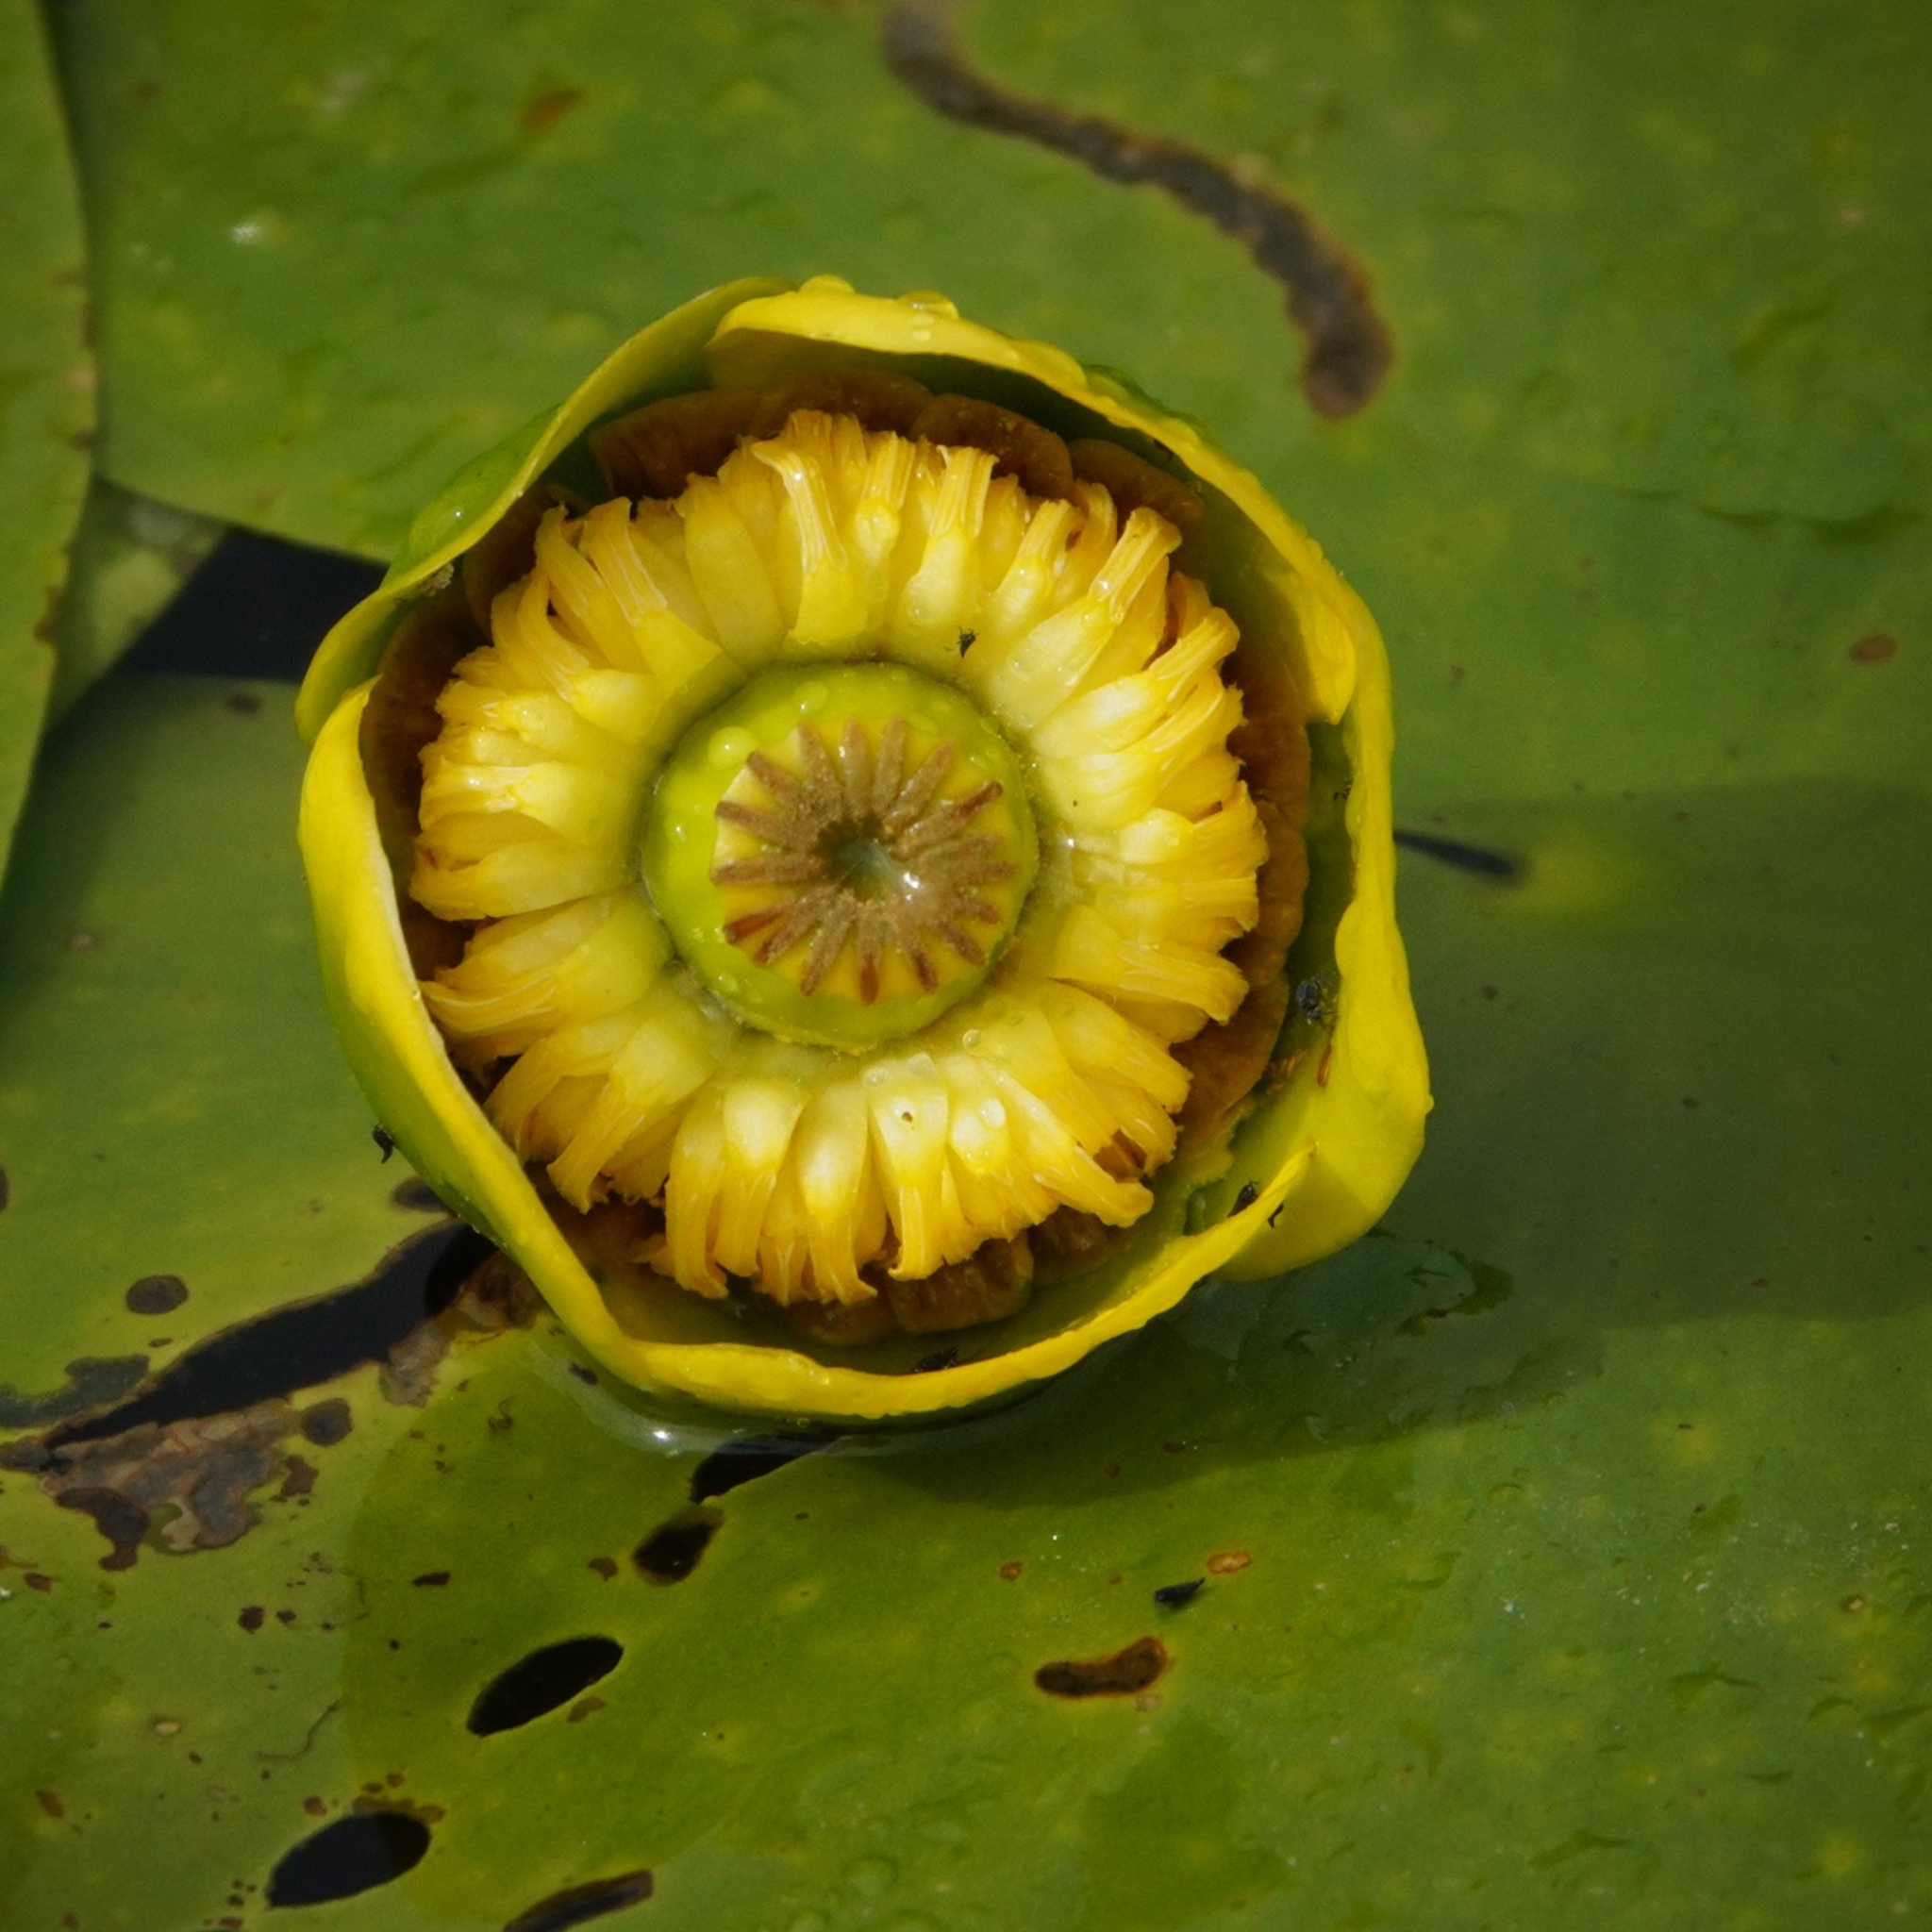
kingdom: Plantae
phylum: Tracheophyta
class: Magnoliopsida
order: Nymphaeales
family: Nymphaeaceae
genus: Nuphar
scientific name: Nuphar lutea
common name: Yellow water-lily
